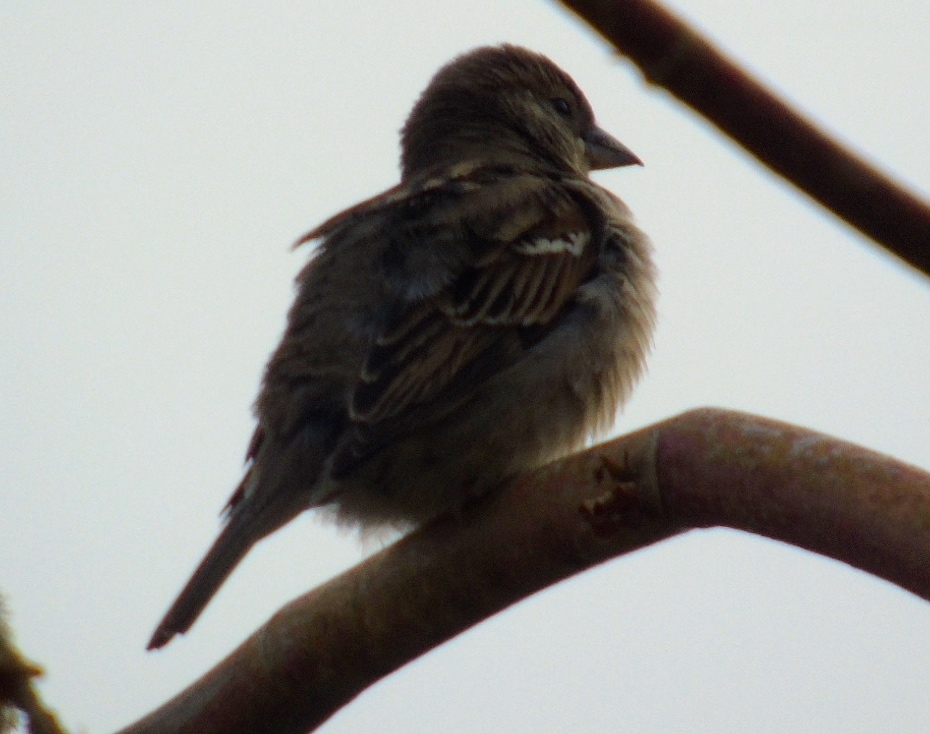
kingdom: Animalia
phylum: Chordata
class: Aves
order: Passeriformes
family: Passeridae
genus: Passer
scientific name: Passer domesticus
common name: House sparrow
